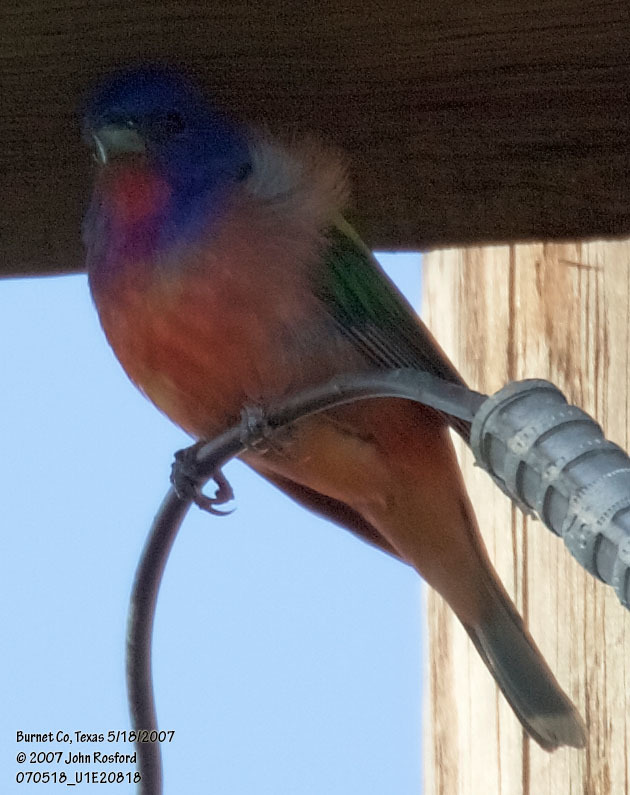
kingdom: Animalia
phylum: Chordata
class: Aves
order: Passeriformes
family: Cardinalidae
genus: Passerina
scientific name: Passerina ciris
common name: Painted bunting
